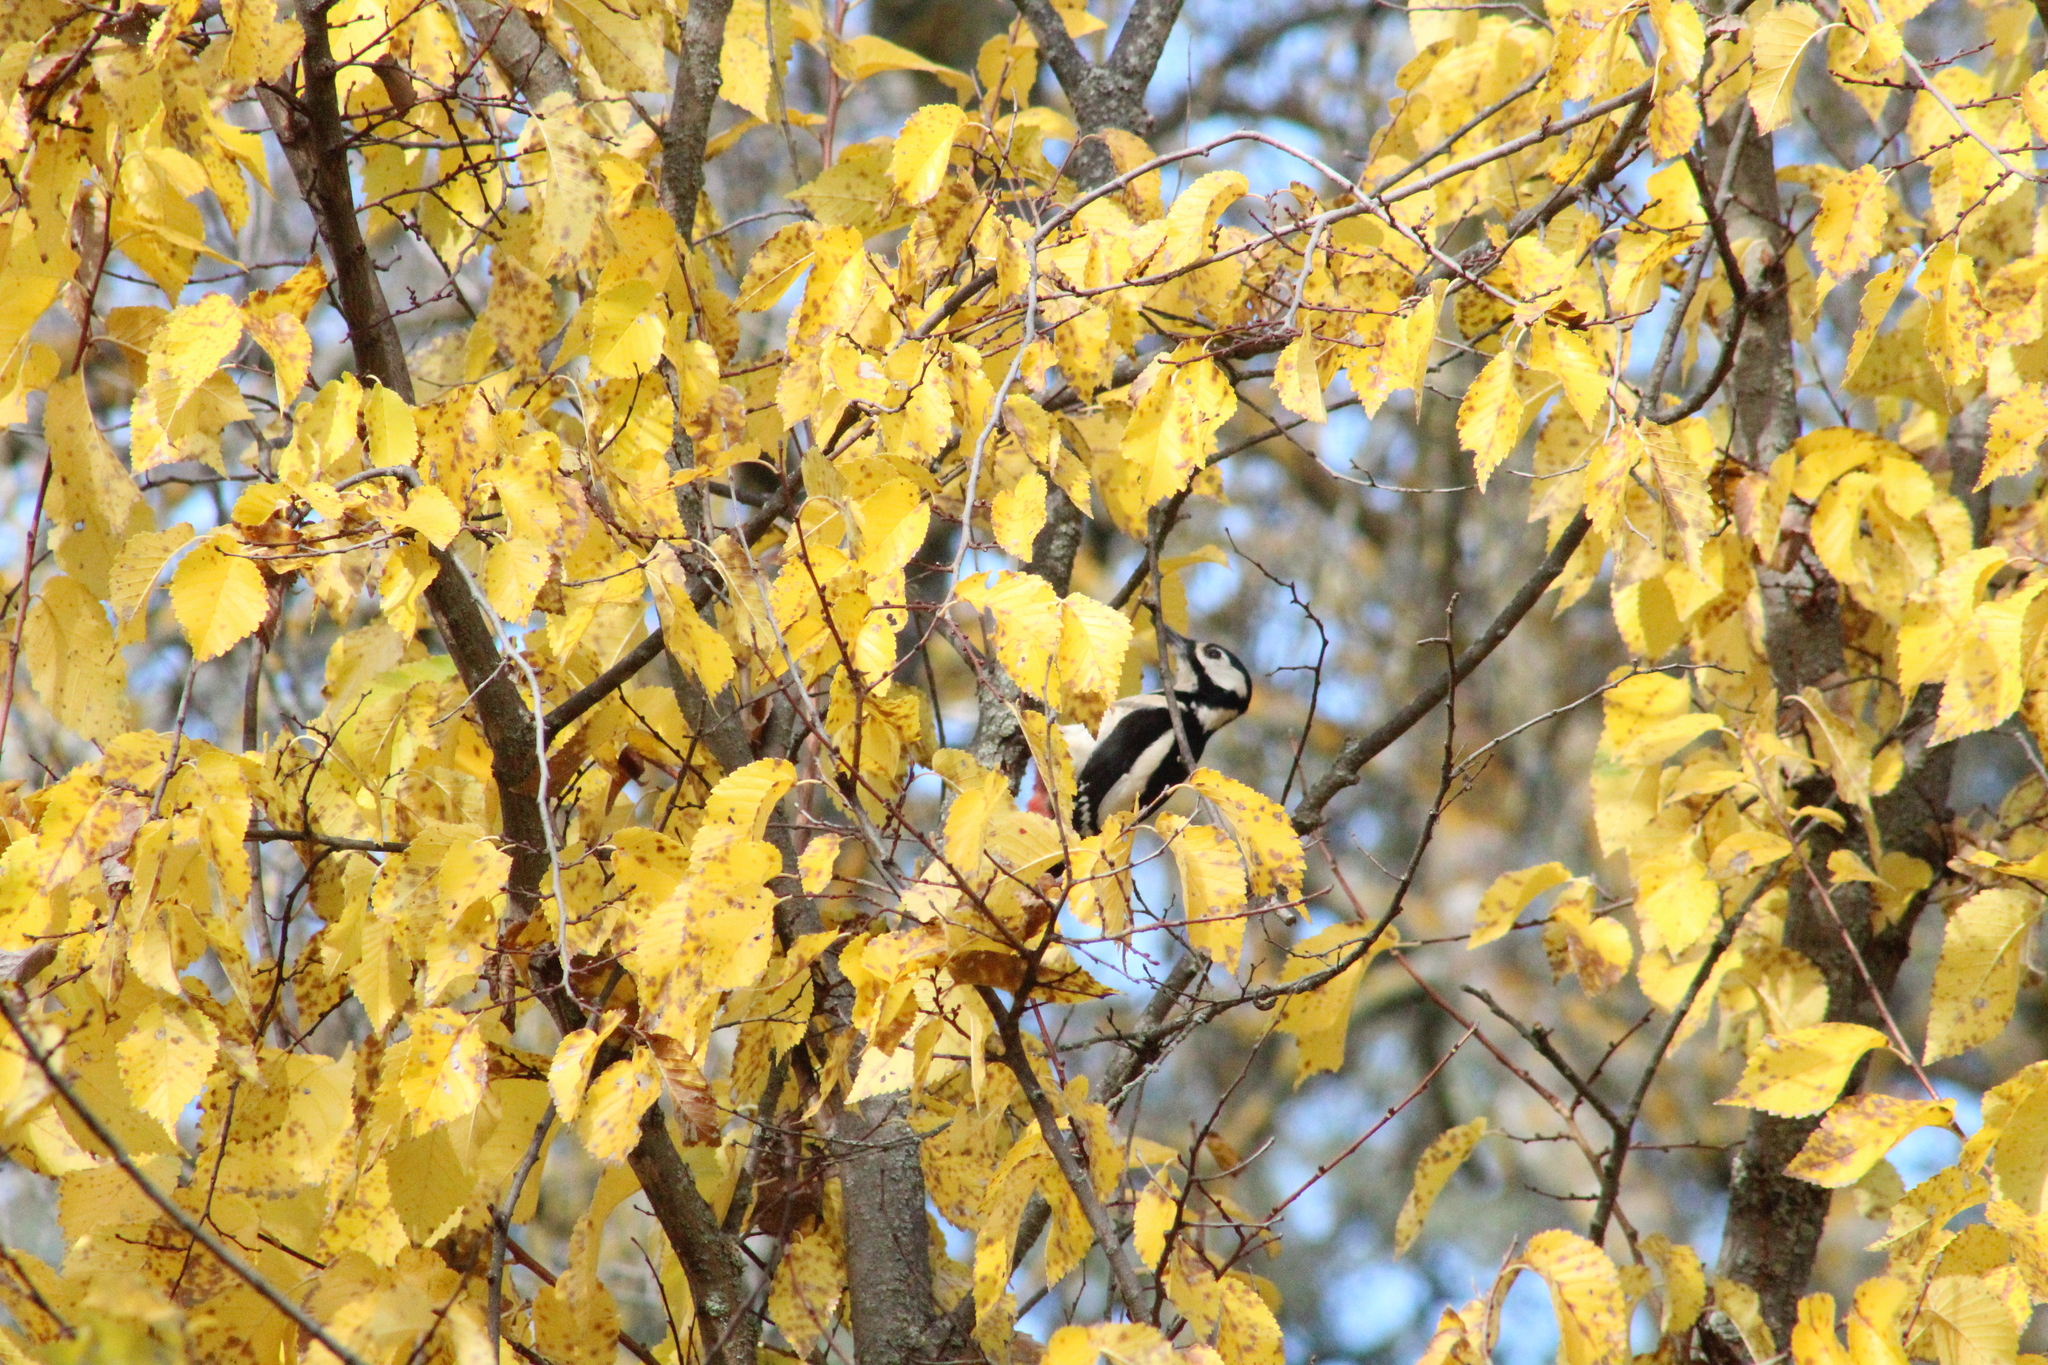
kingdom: Animalia
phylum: Chordata
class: Aves
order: Piciformes
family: Picidae
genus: Dendrocopos
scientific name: Dendrocopos major
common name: Great spotted woodpecker
